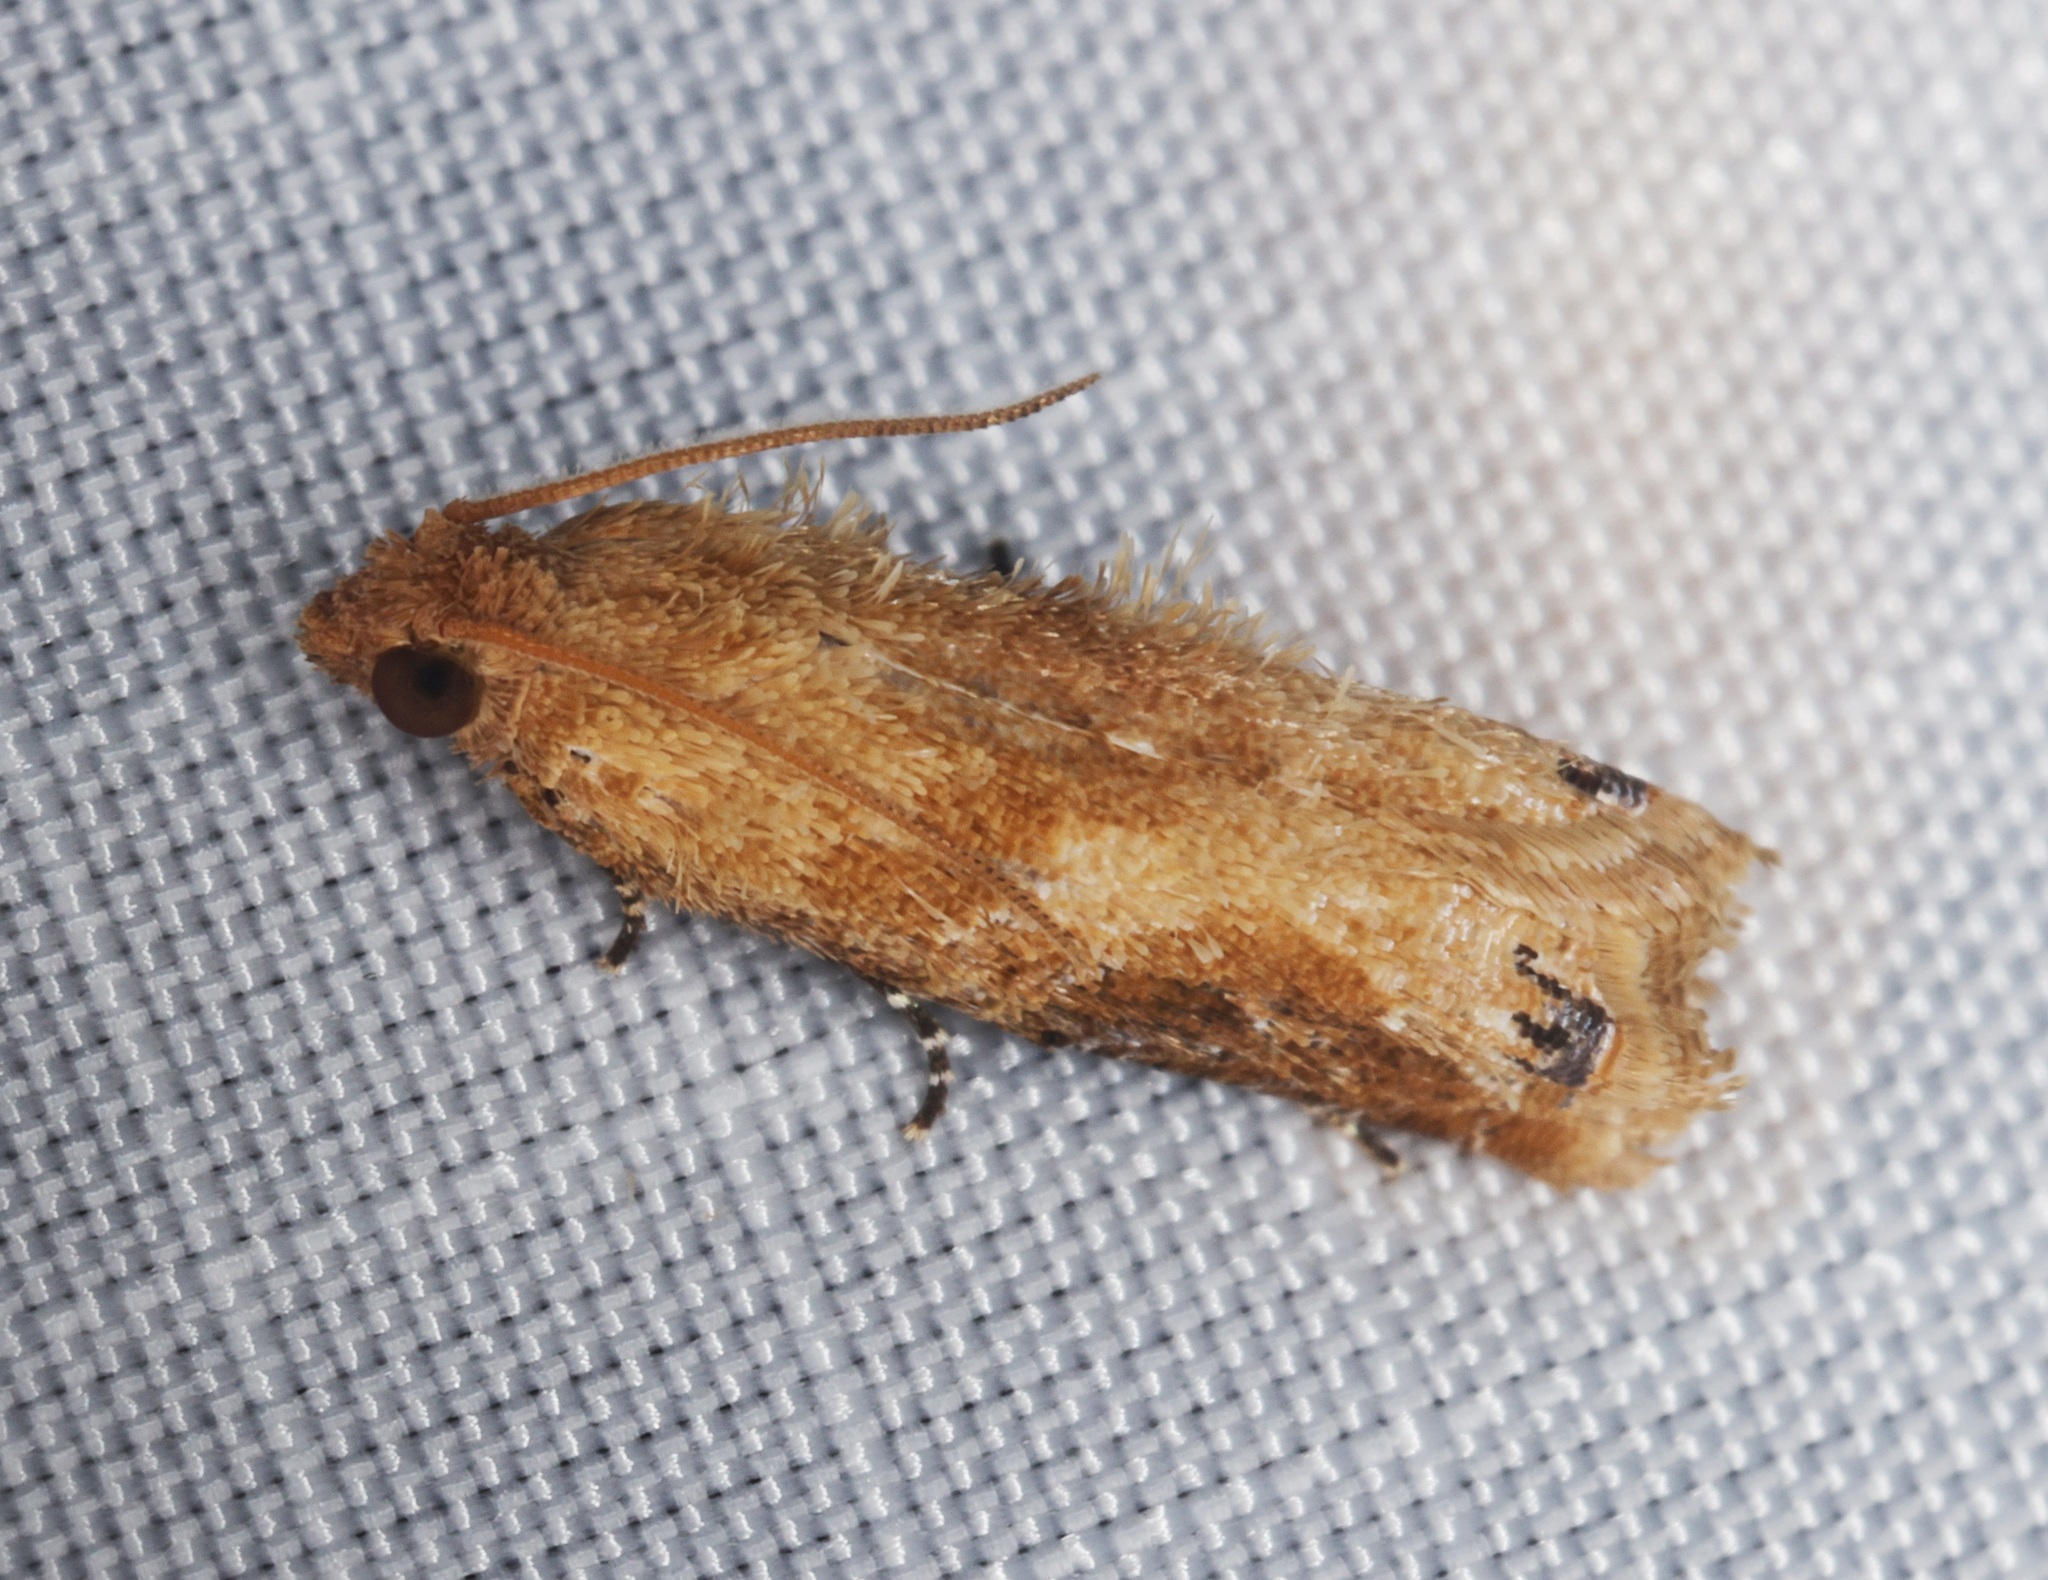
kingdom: Animalia
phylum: Arthropoda
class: Insecta
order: Lepidoptera
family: Tortricidae
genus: Lepteucosma
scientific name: Lepteucosma blanda
